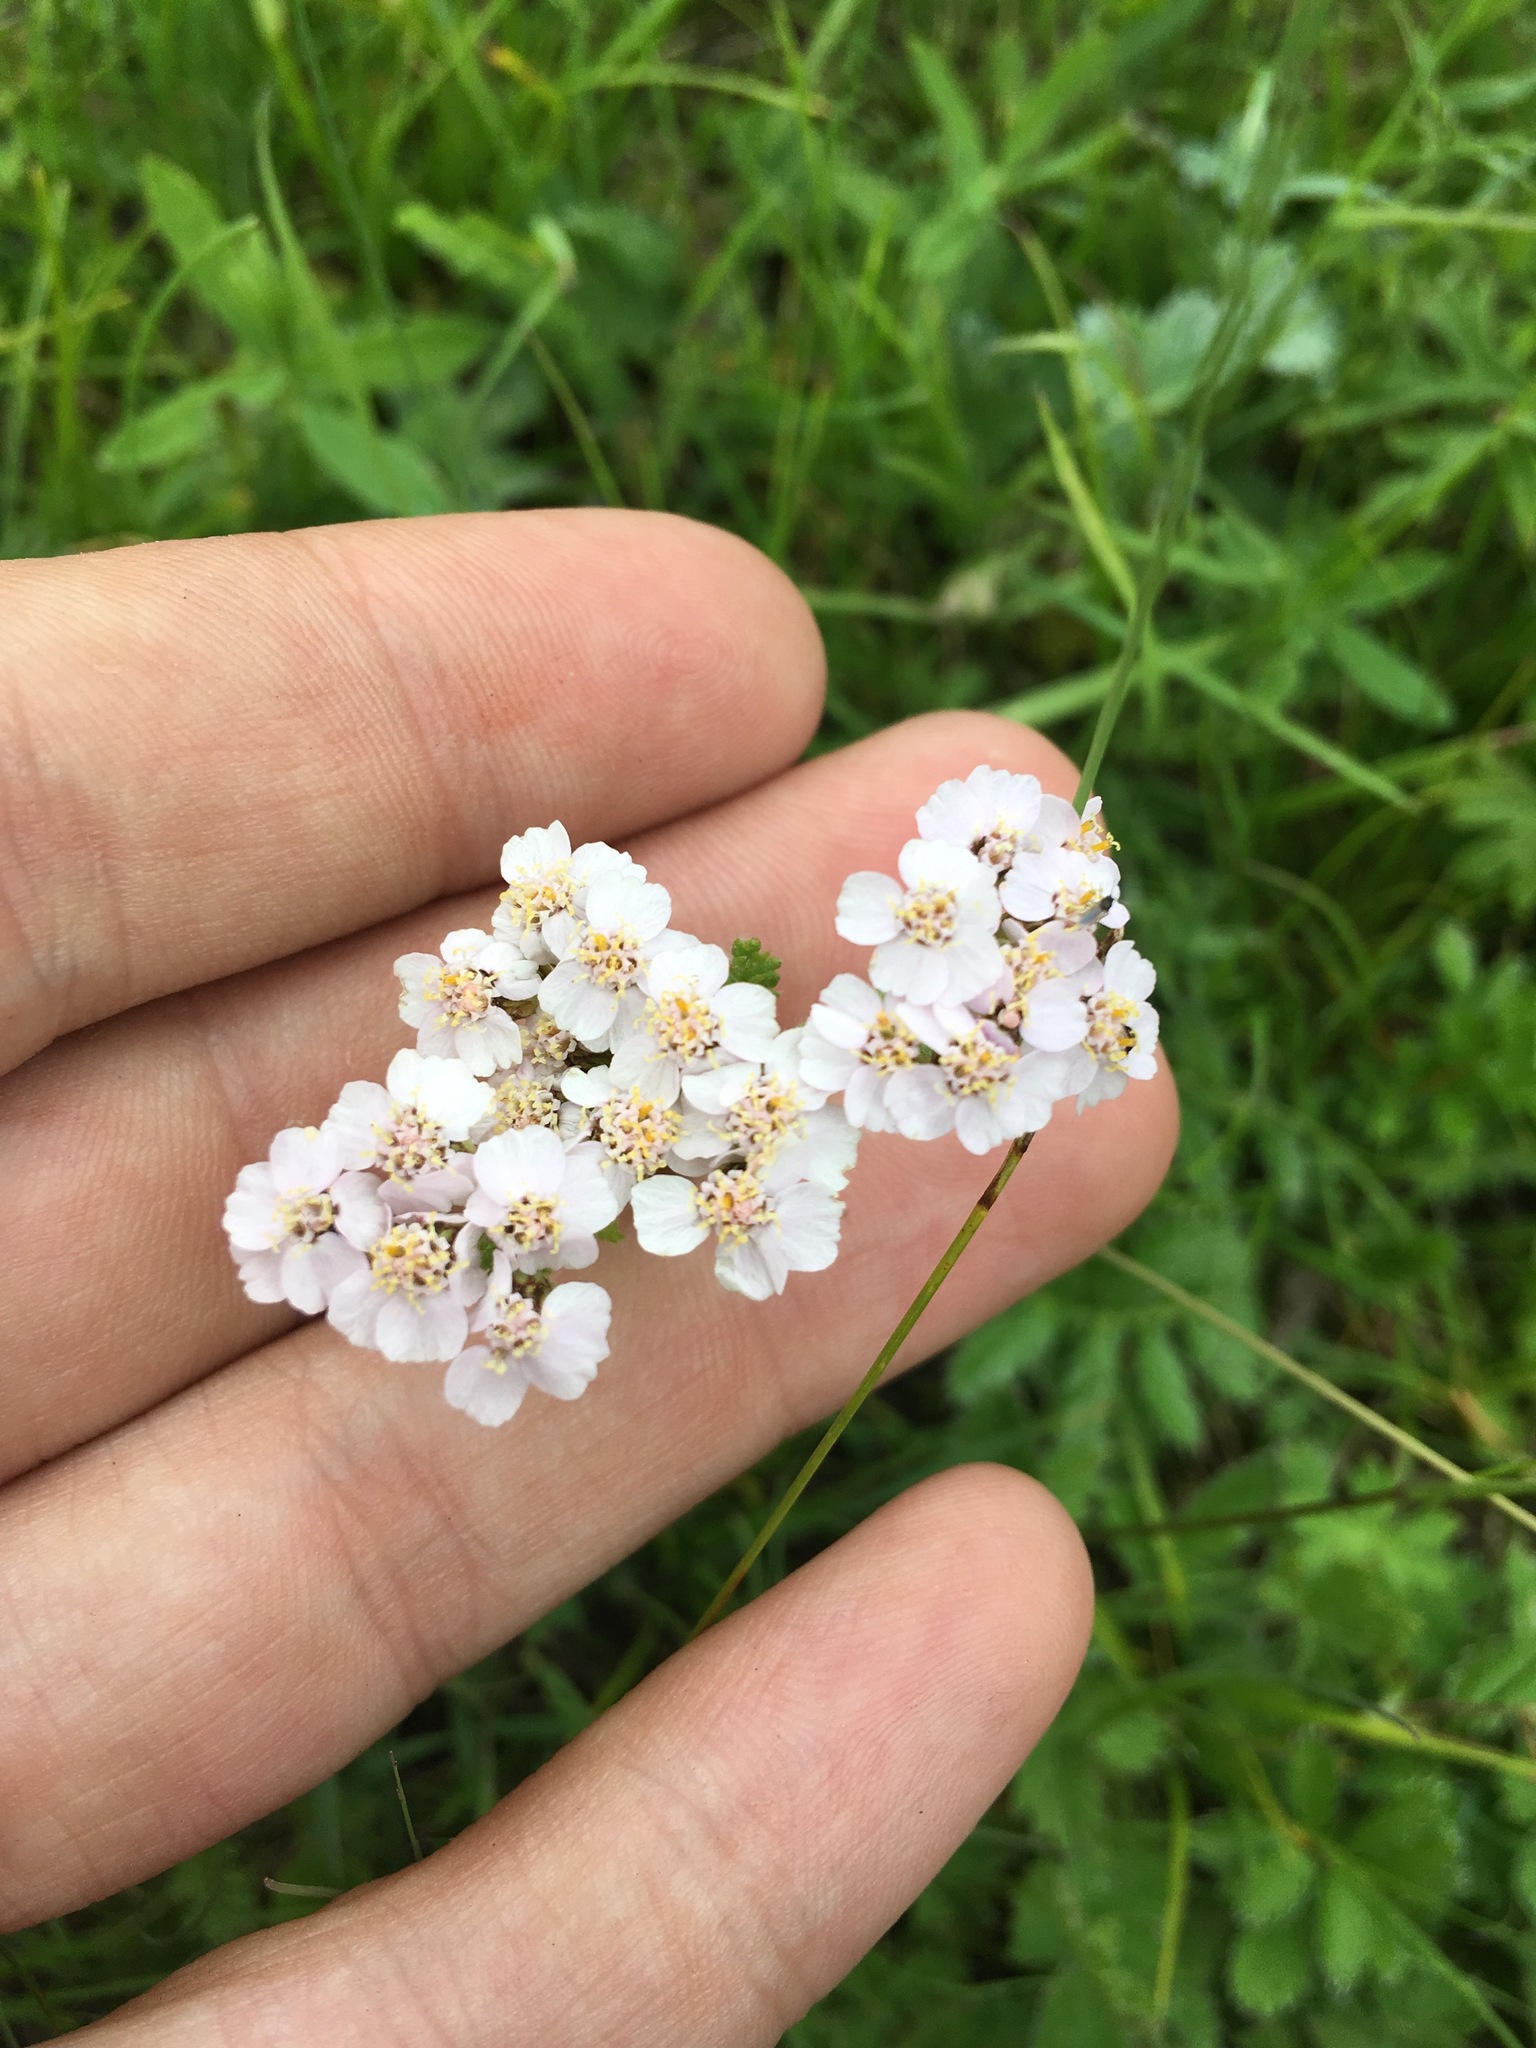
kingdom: Plantae
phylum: Tracheophyta
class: Magnoliopsida
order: Asterales
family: Asteraceae
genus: Achillea
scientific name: Achillea asiatica
